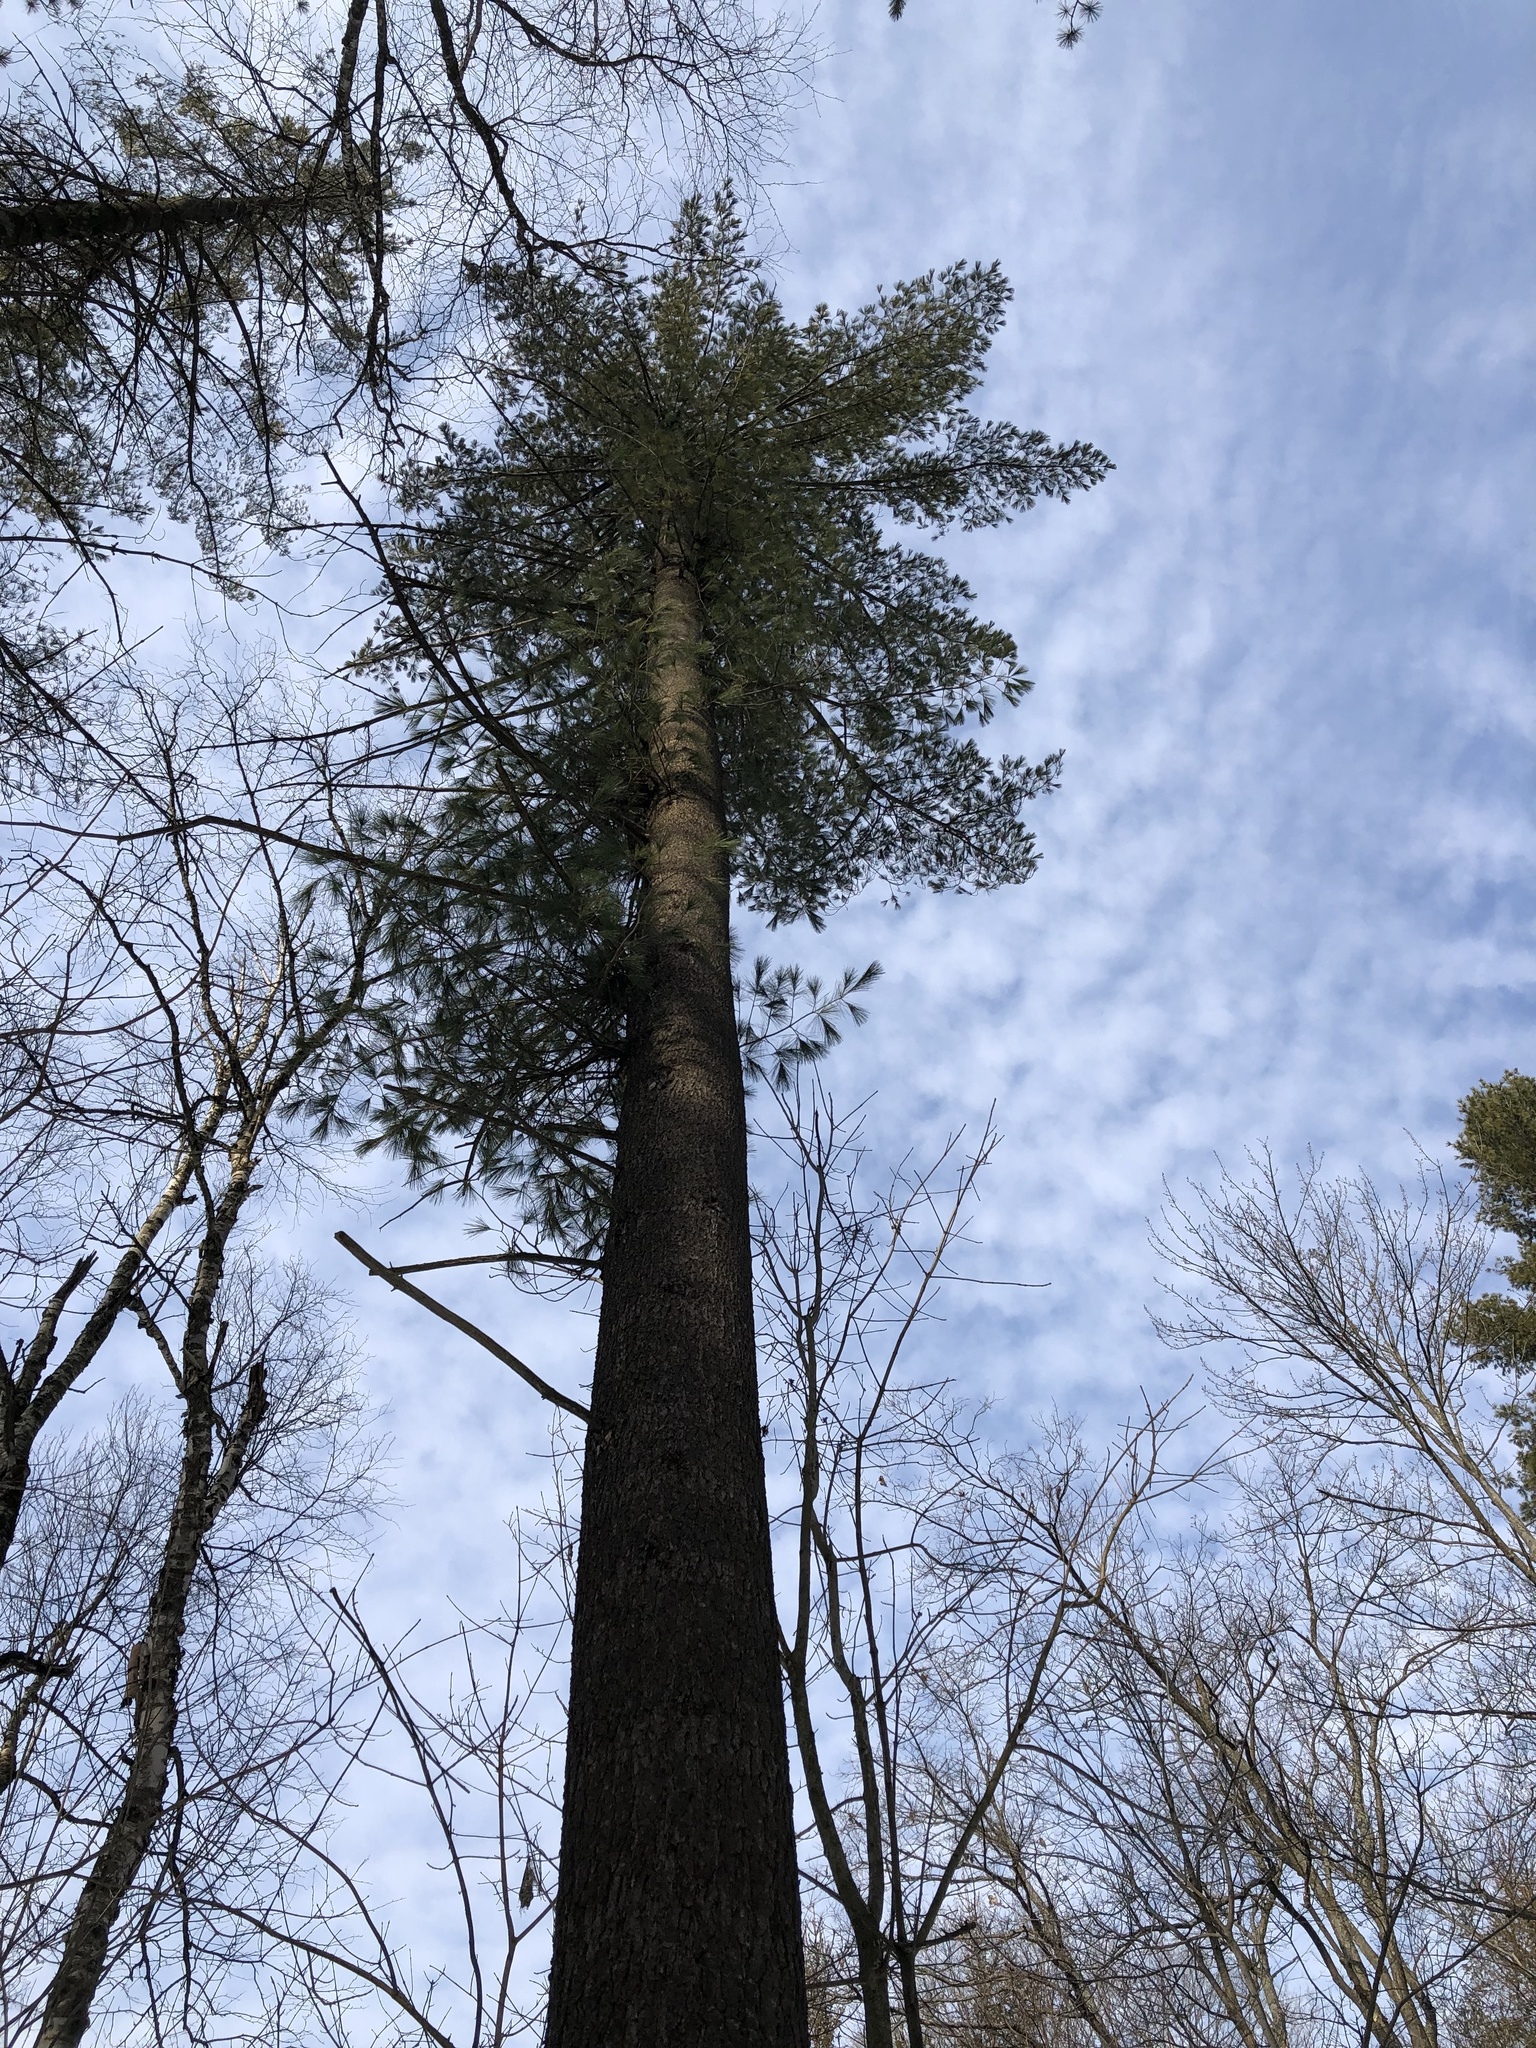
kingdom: Plantae
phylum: Tracheophyta
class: Pinopsida
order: Pinales
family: Pinaceae
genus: Pinus
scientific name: Pinus strobus
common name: Weymouth pine
